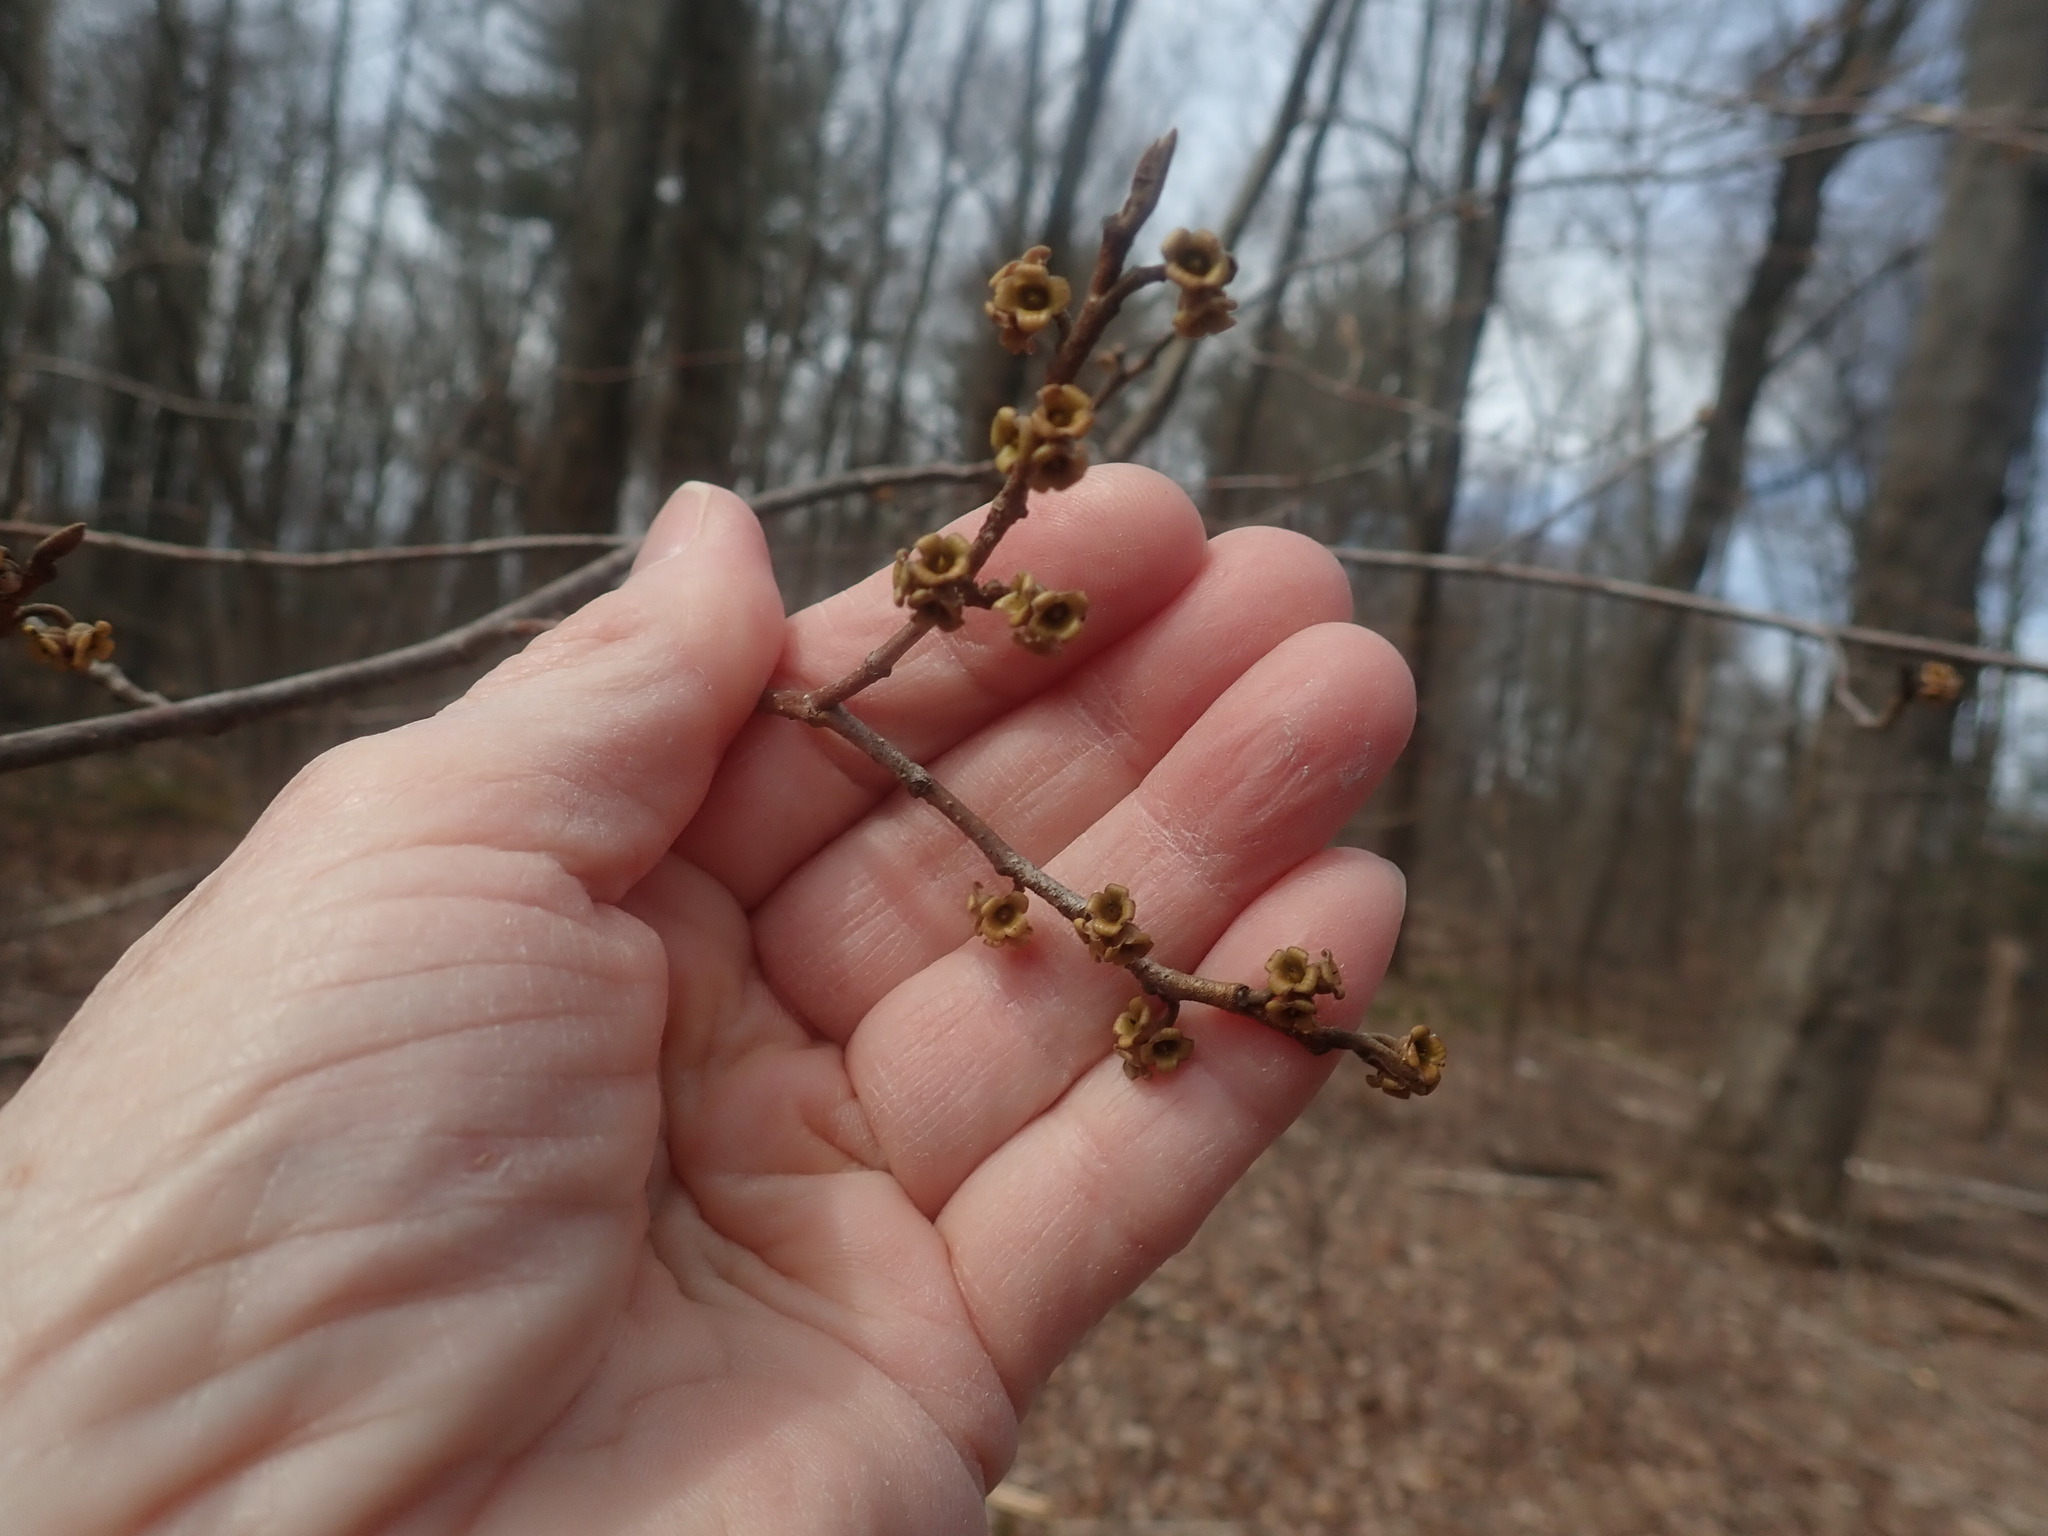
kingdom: Plantae
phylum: Tracheophyta
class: Magnoliopsida
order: Saxifragales
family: Hamamelidaceae
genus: Hamamelis
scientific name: Hamamelis virginiana
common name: Witch-hazel
